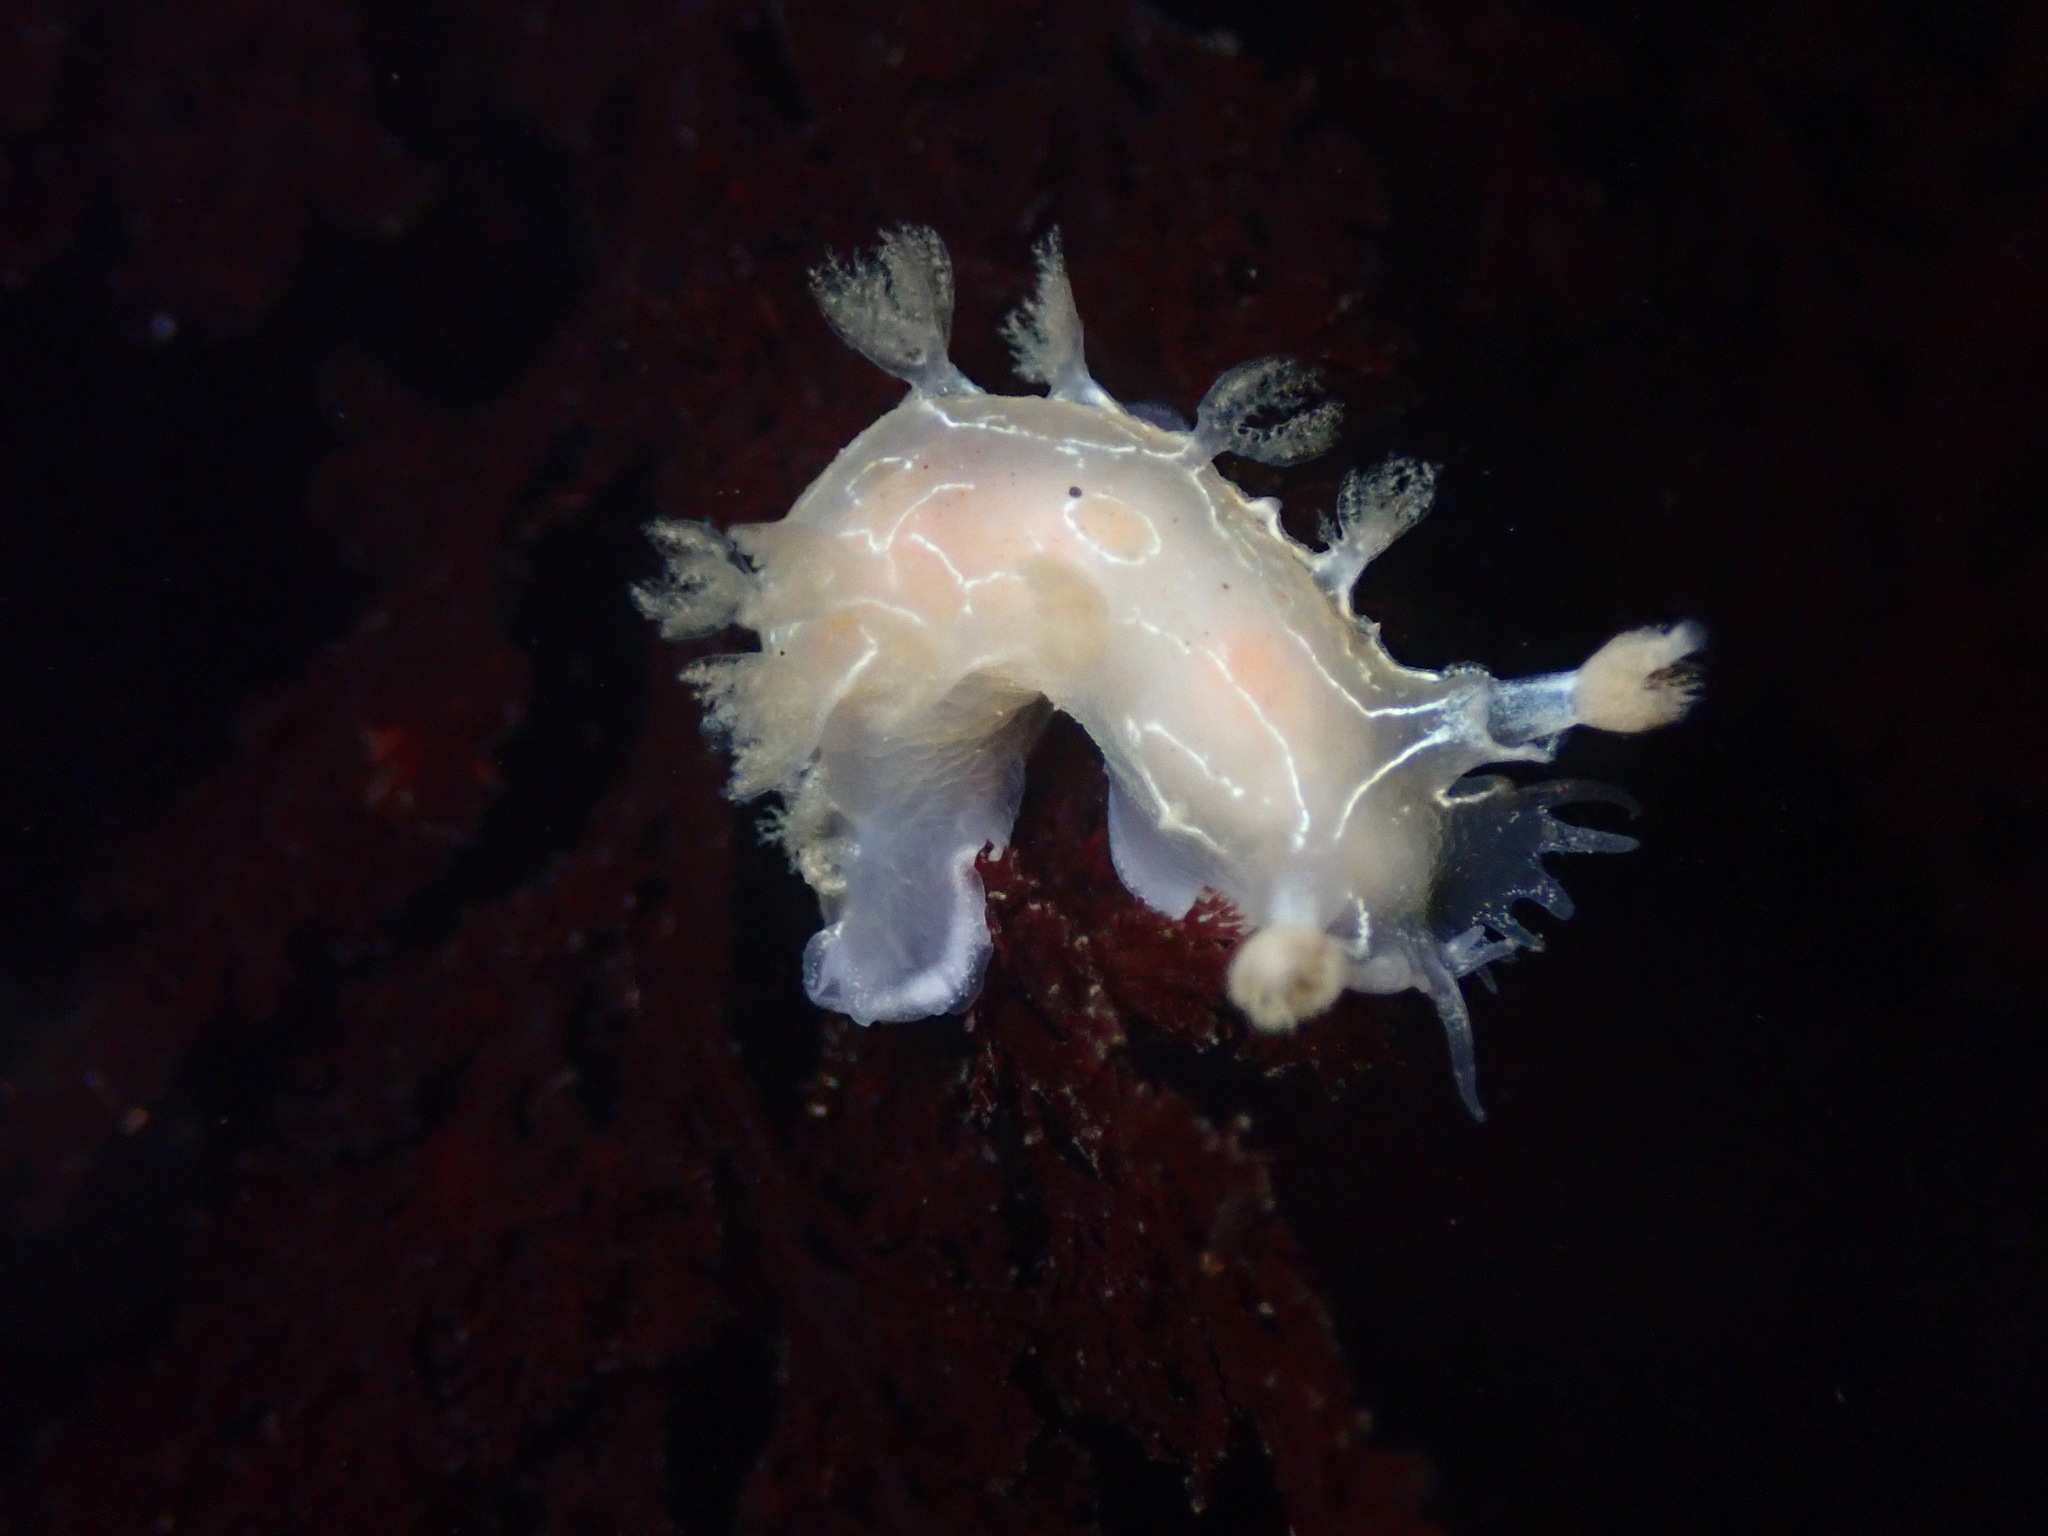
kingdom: Animalia
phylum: Mollusca
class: Gastropoda
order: Nudibranchia
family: Tritoniidae
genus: Tritonia
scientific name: Tritonia festiva
